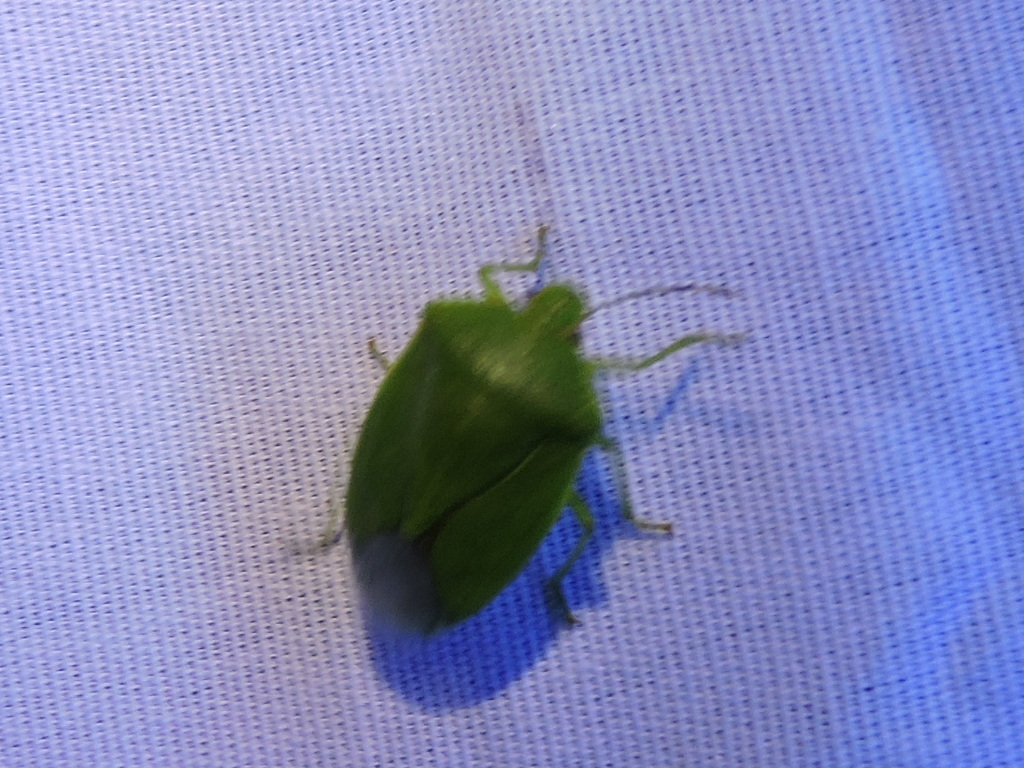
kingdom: Animalia
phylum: Arthropoda
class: Insecta
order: Hemiptera
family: Pentatomidae
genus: Chinavia
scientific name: Chinavia hilaris
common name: Green stink bug
